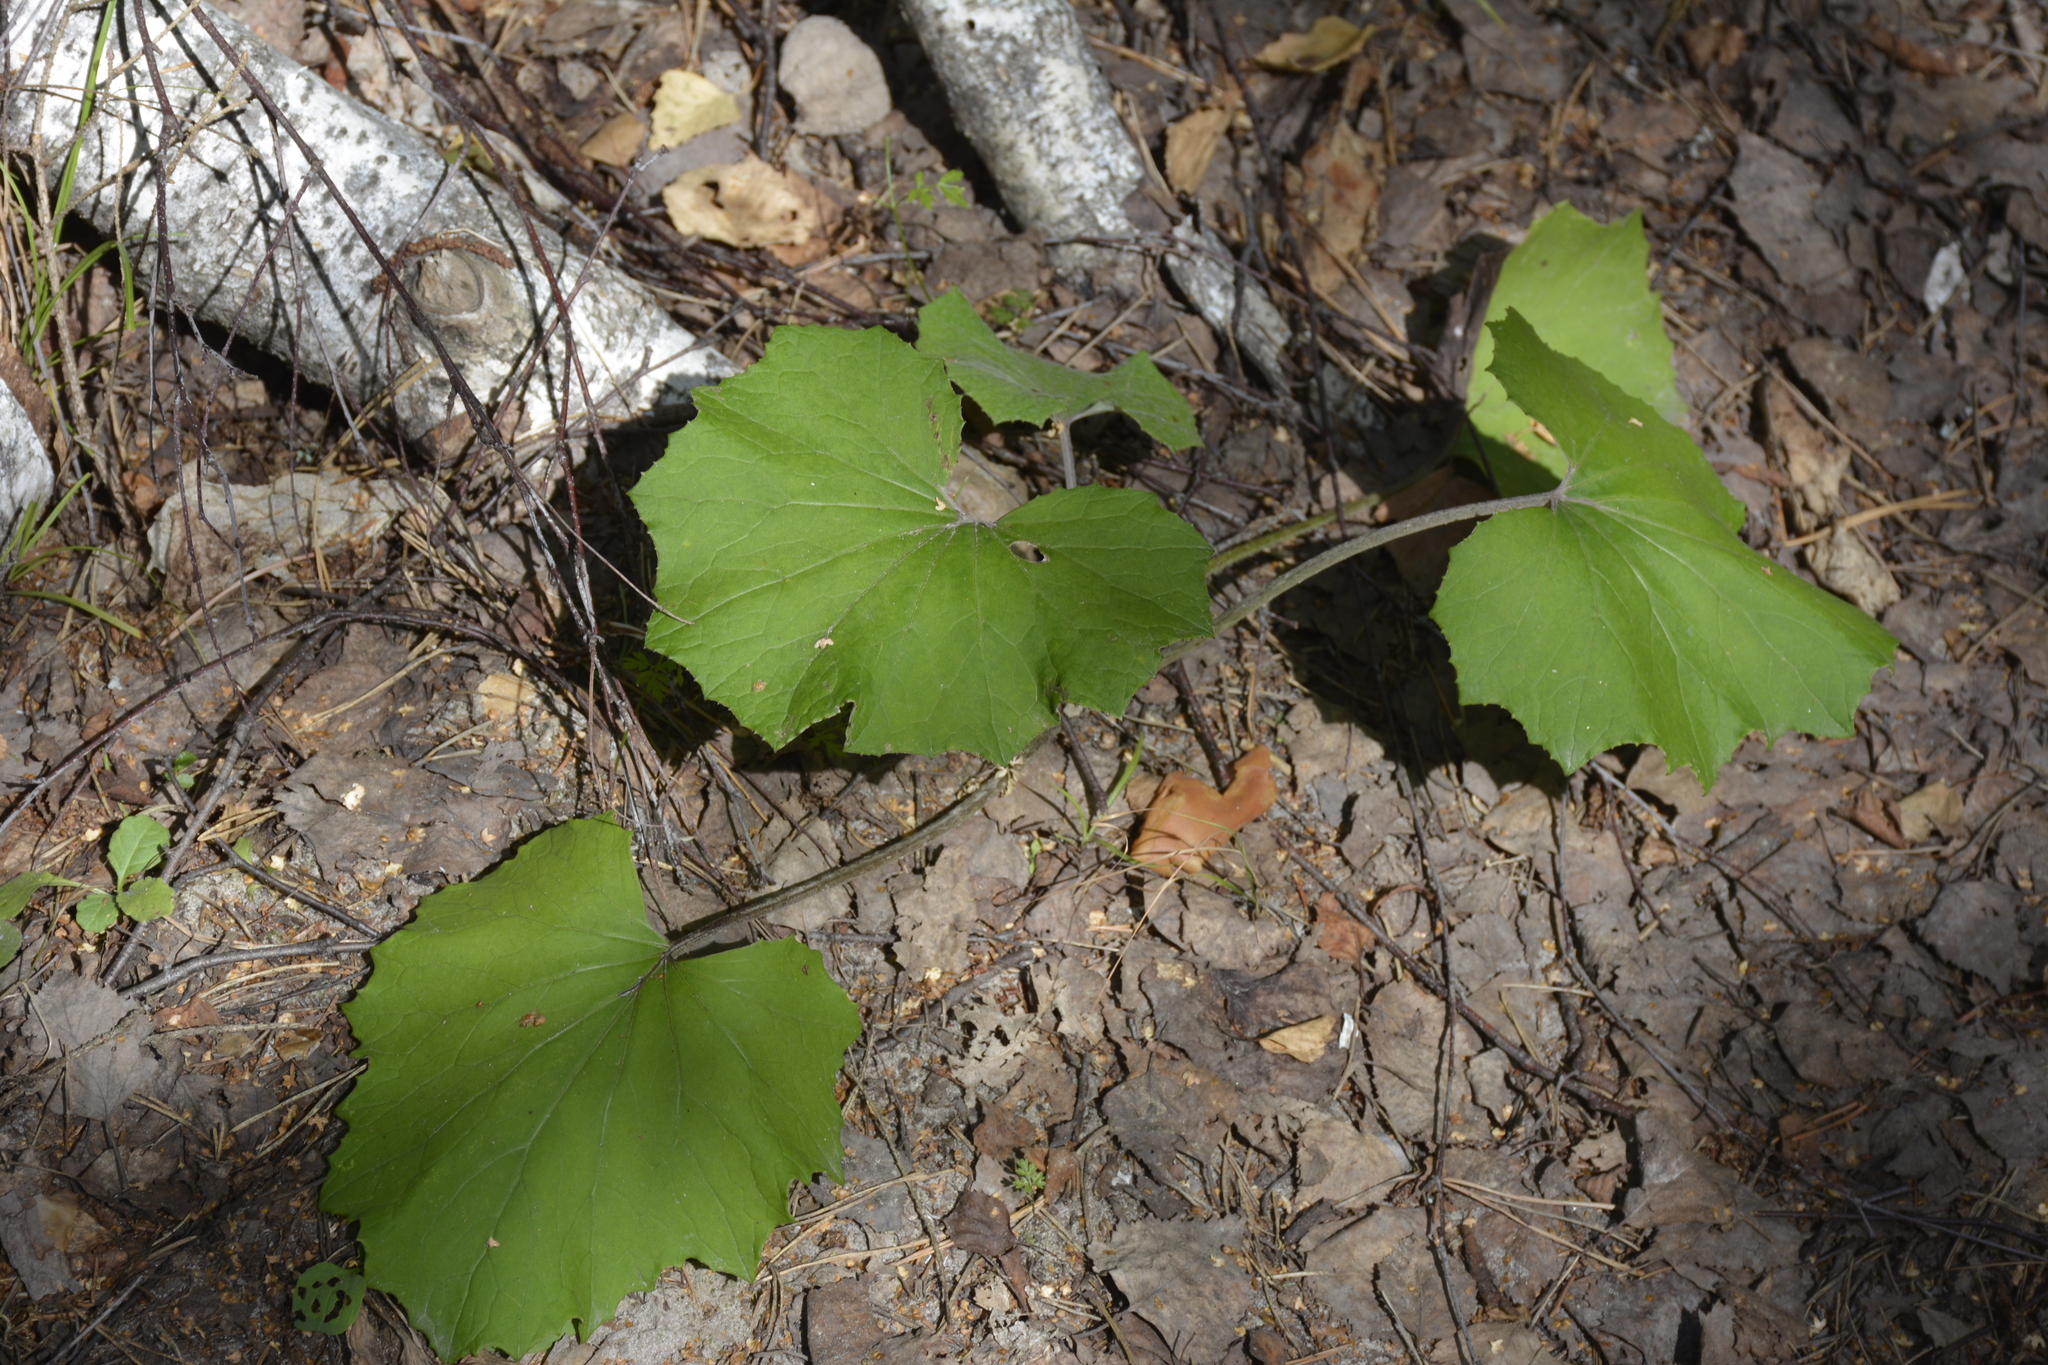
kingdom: Plantae
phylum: Tracheophyta
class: Magnoliopsida
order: Asterales
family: Asteraceae
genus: Tussilago
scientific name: Tussilago farfara
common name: Coltsfoot
